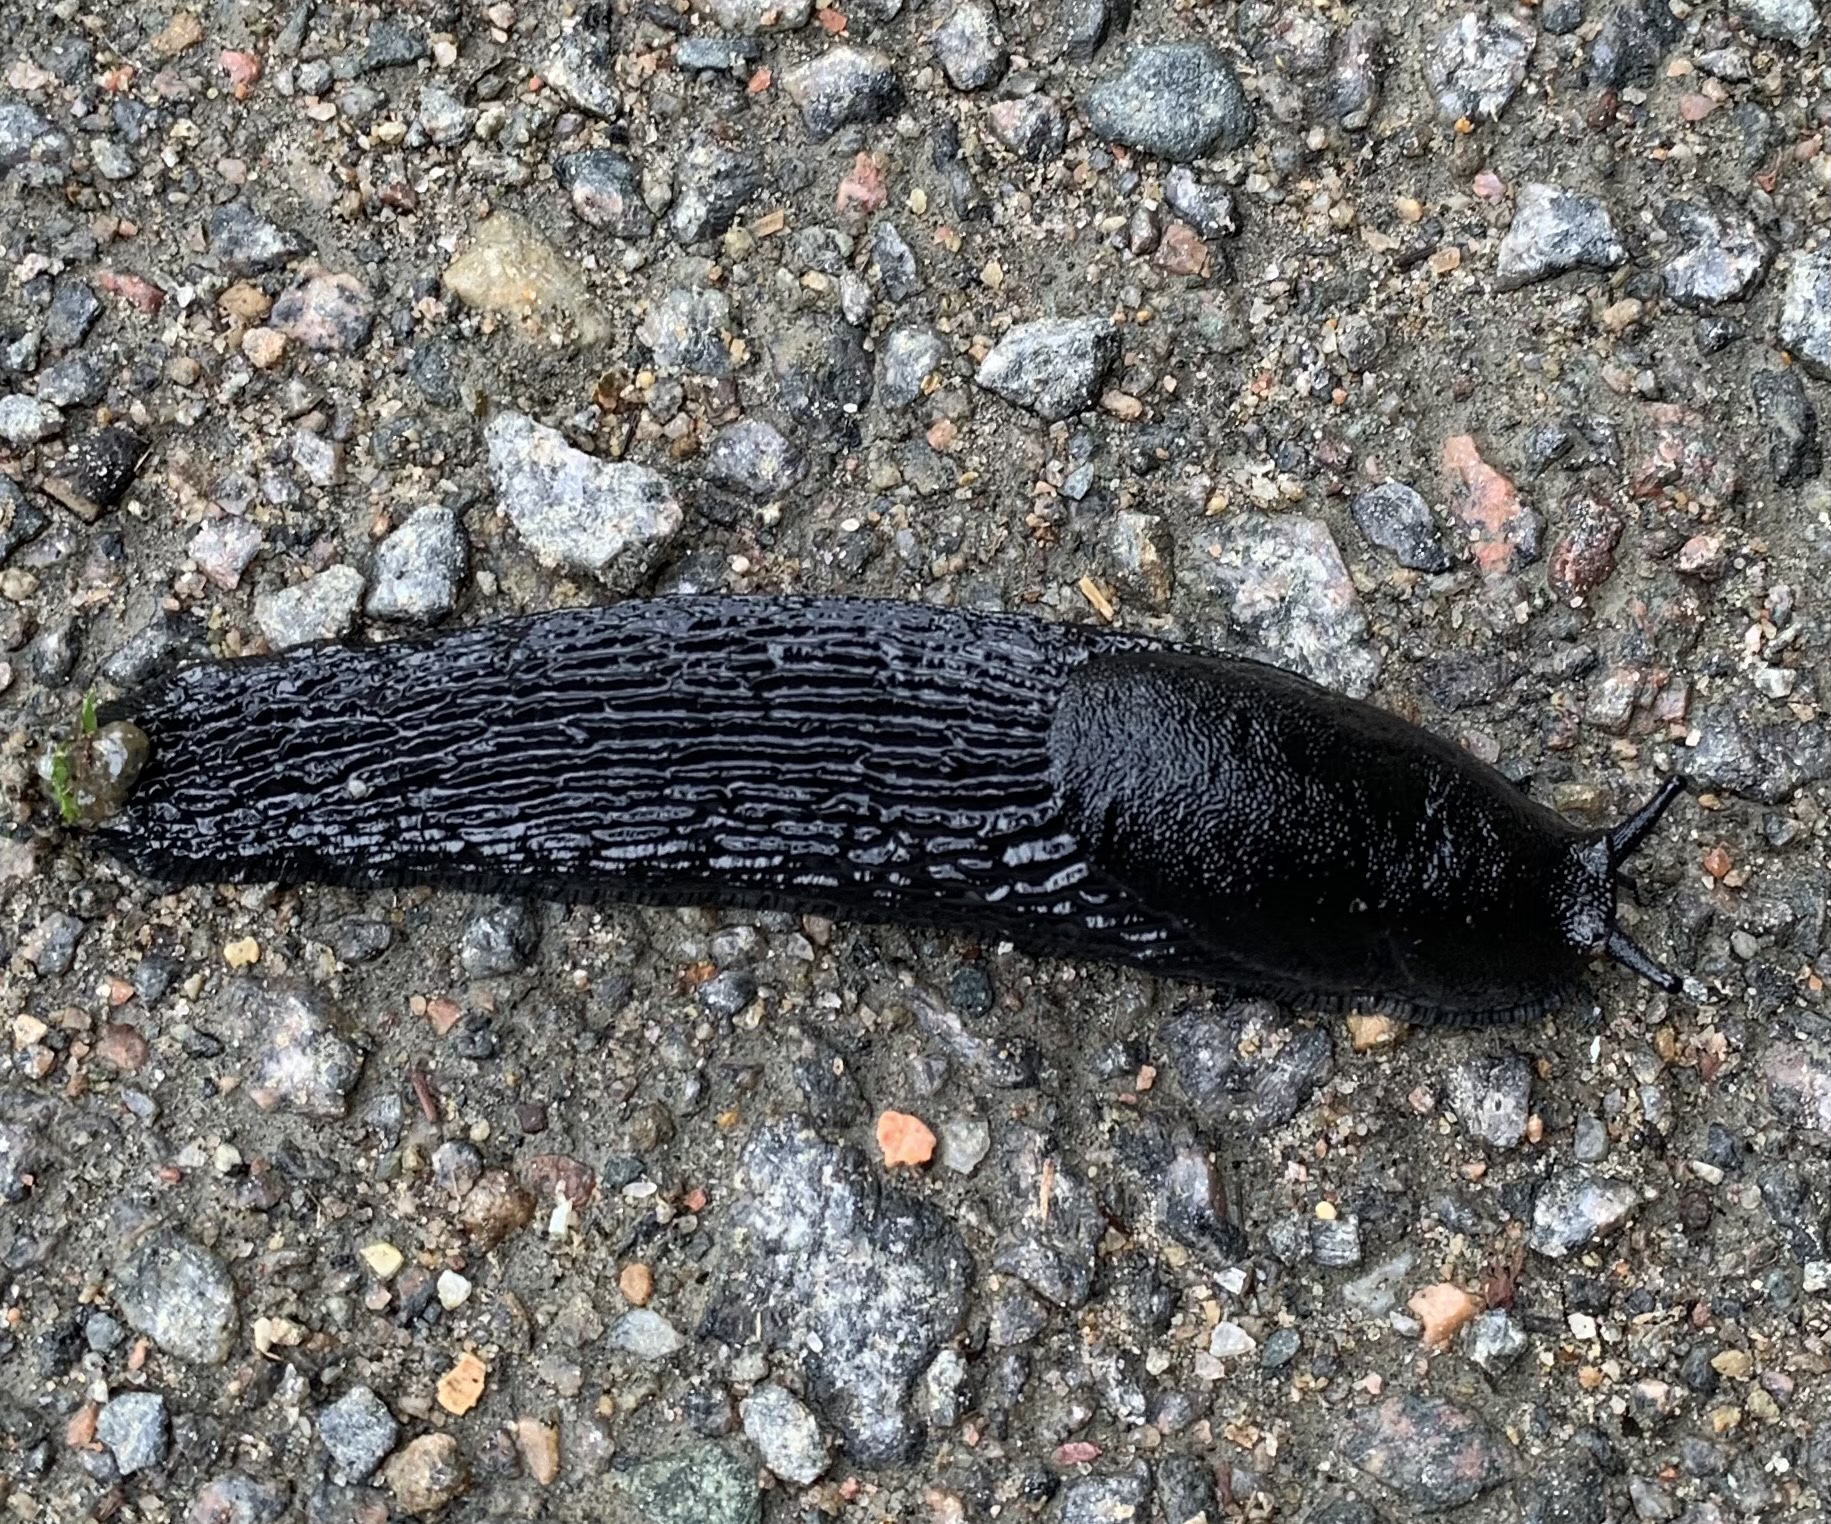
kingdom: Animalia
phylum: Mollusca
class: Gastropoda
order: Stylommatophora
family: Arionidae
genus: Arion
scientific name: Arion ater
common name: Black arion
